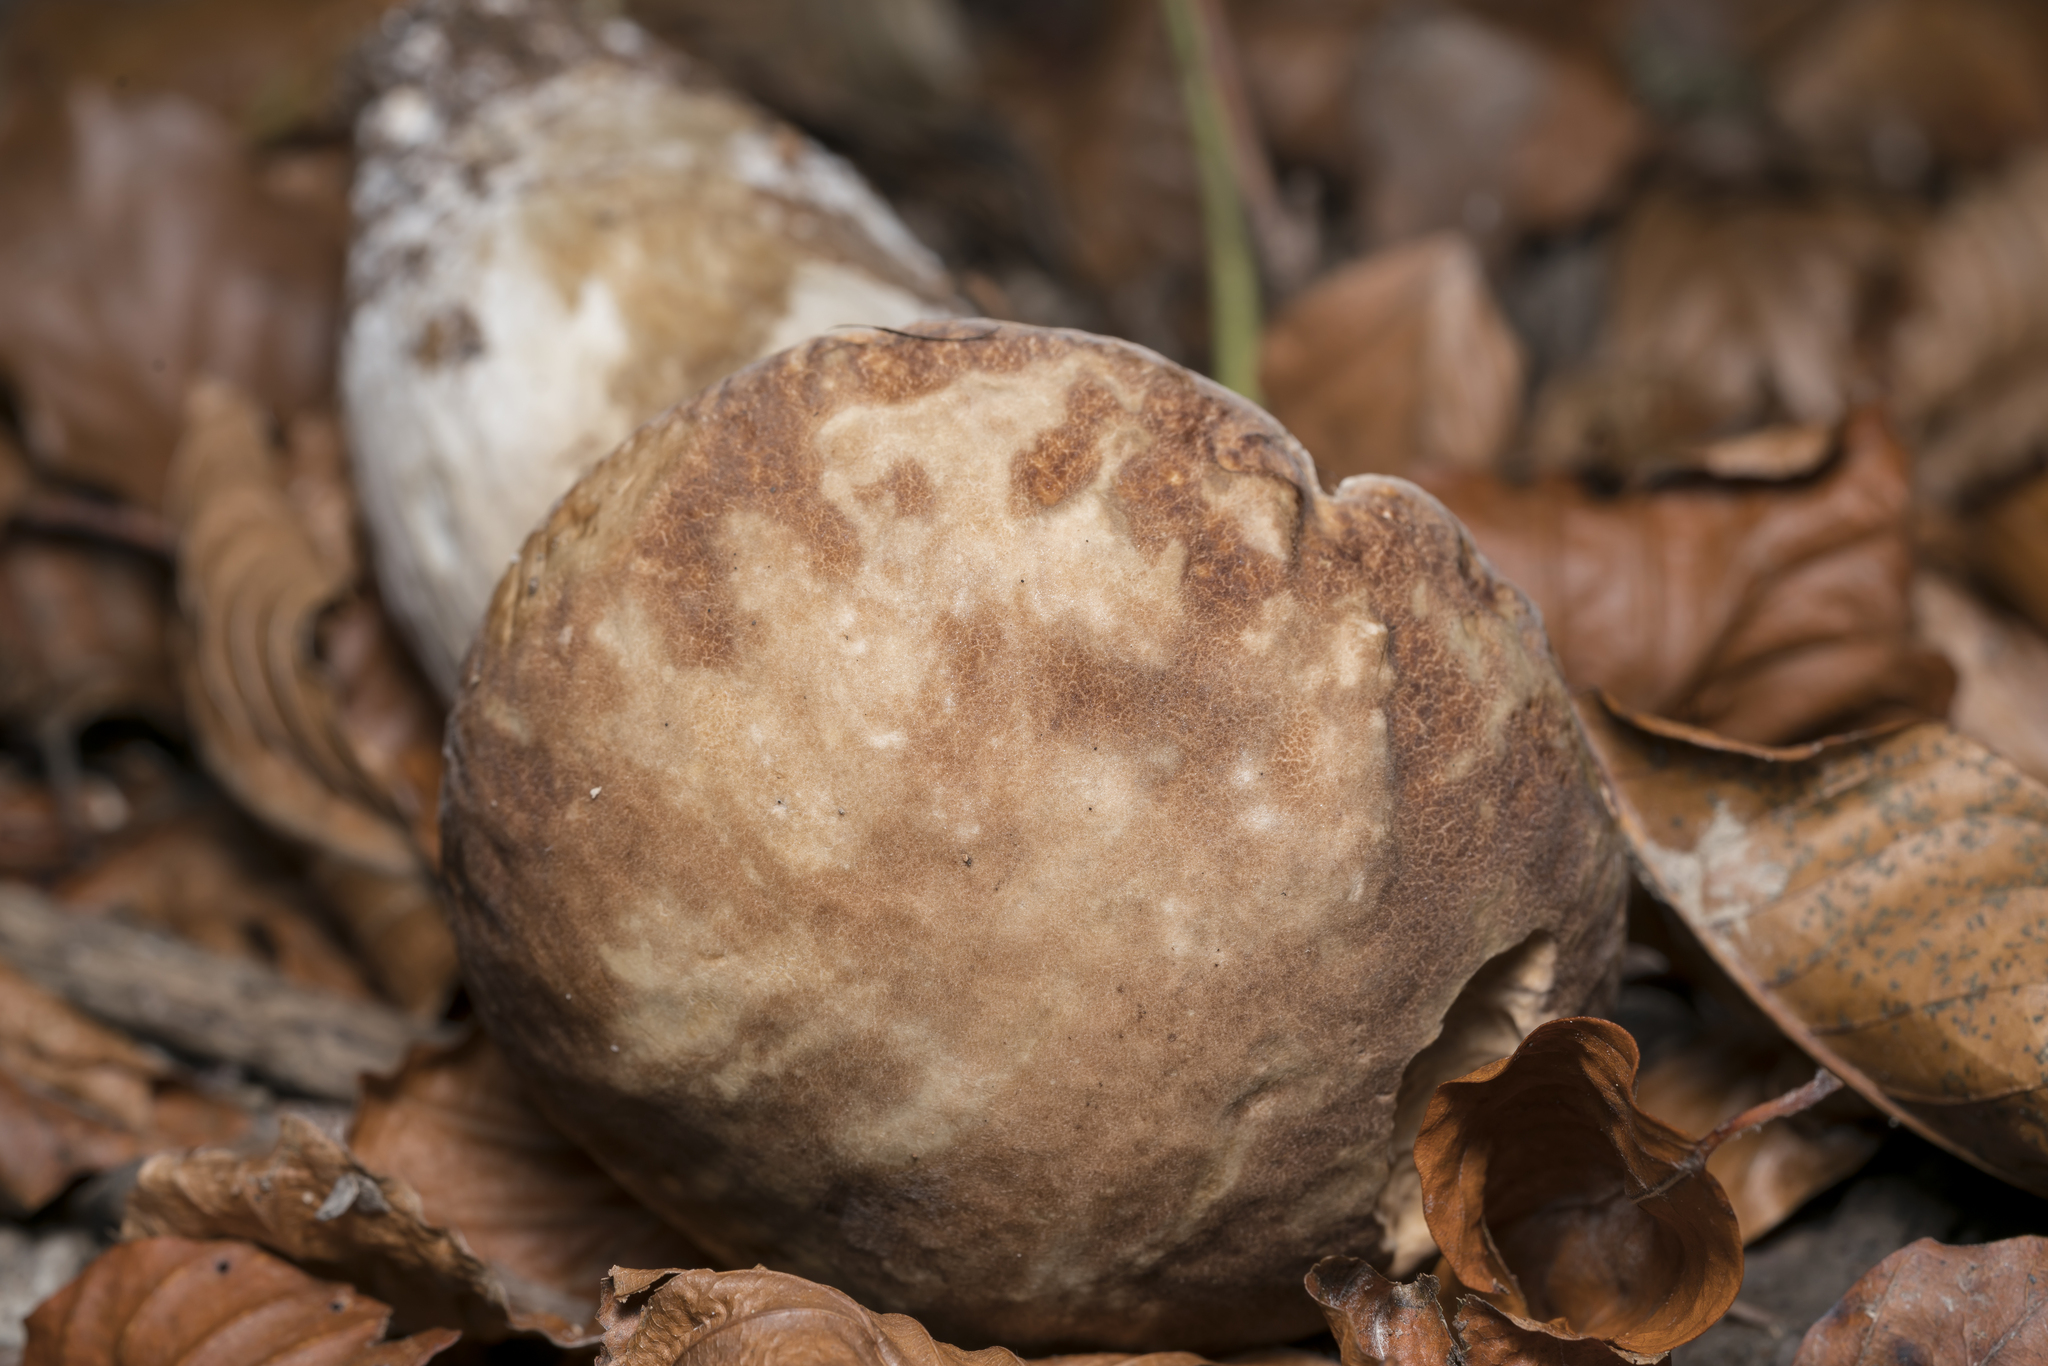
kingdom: Fungi
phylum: Basidiomycota
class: Agaricomycetes
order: Boletales
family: Boletaceae
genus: Boletus
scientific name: Boletus reticulatus
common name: Summer bolete
